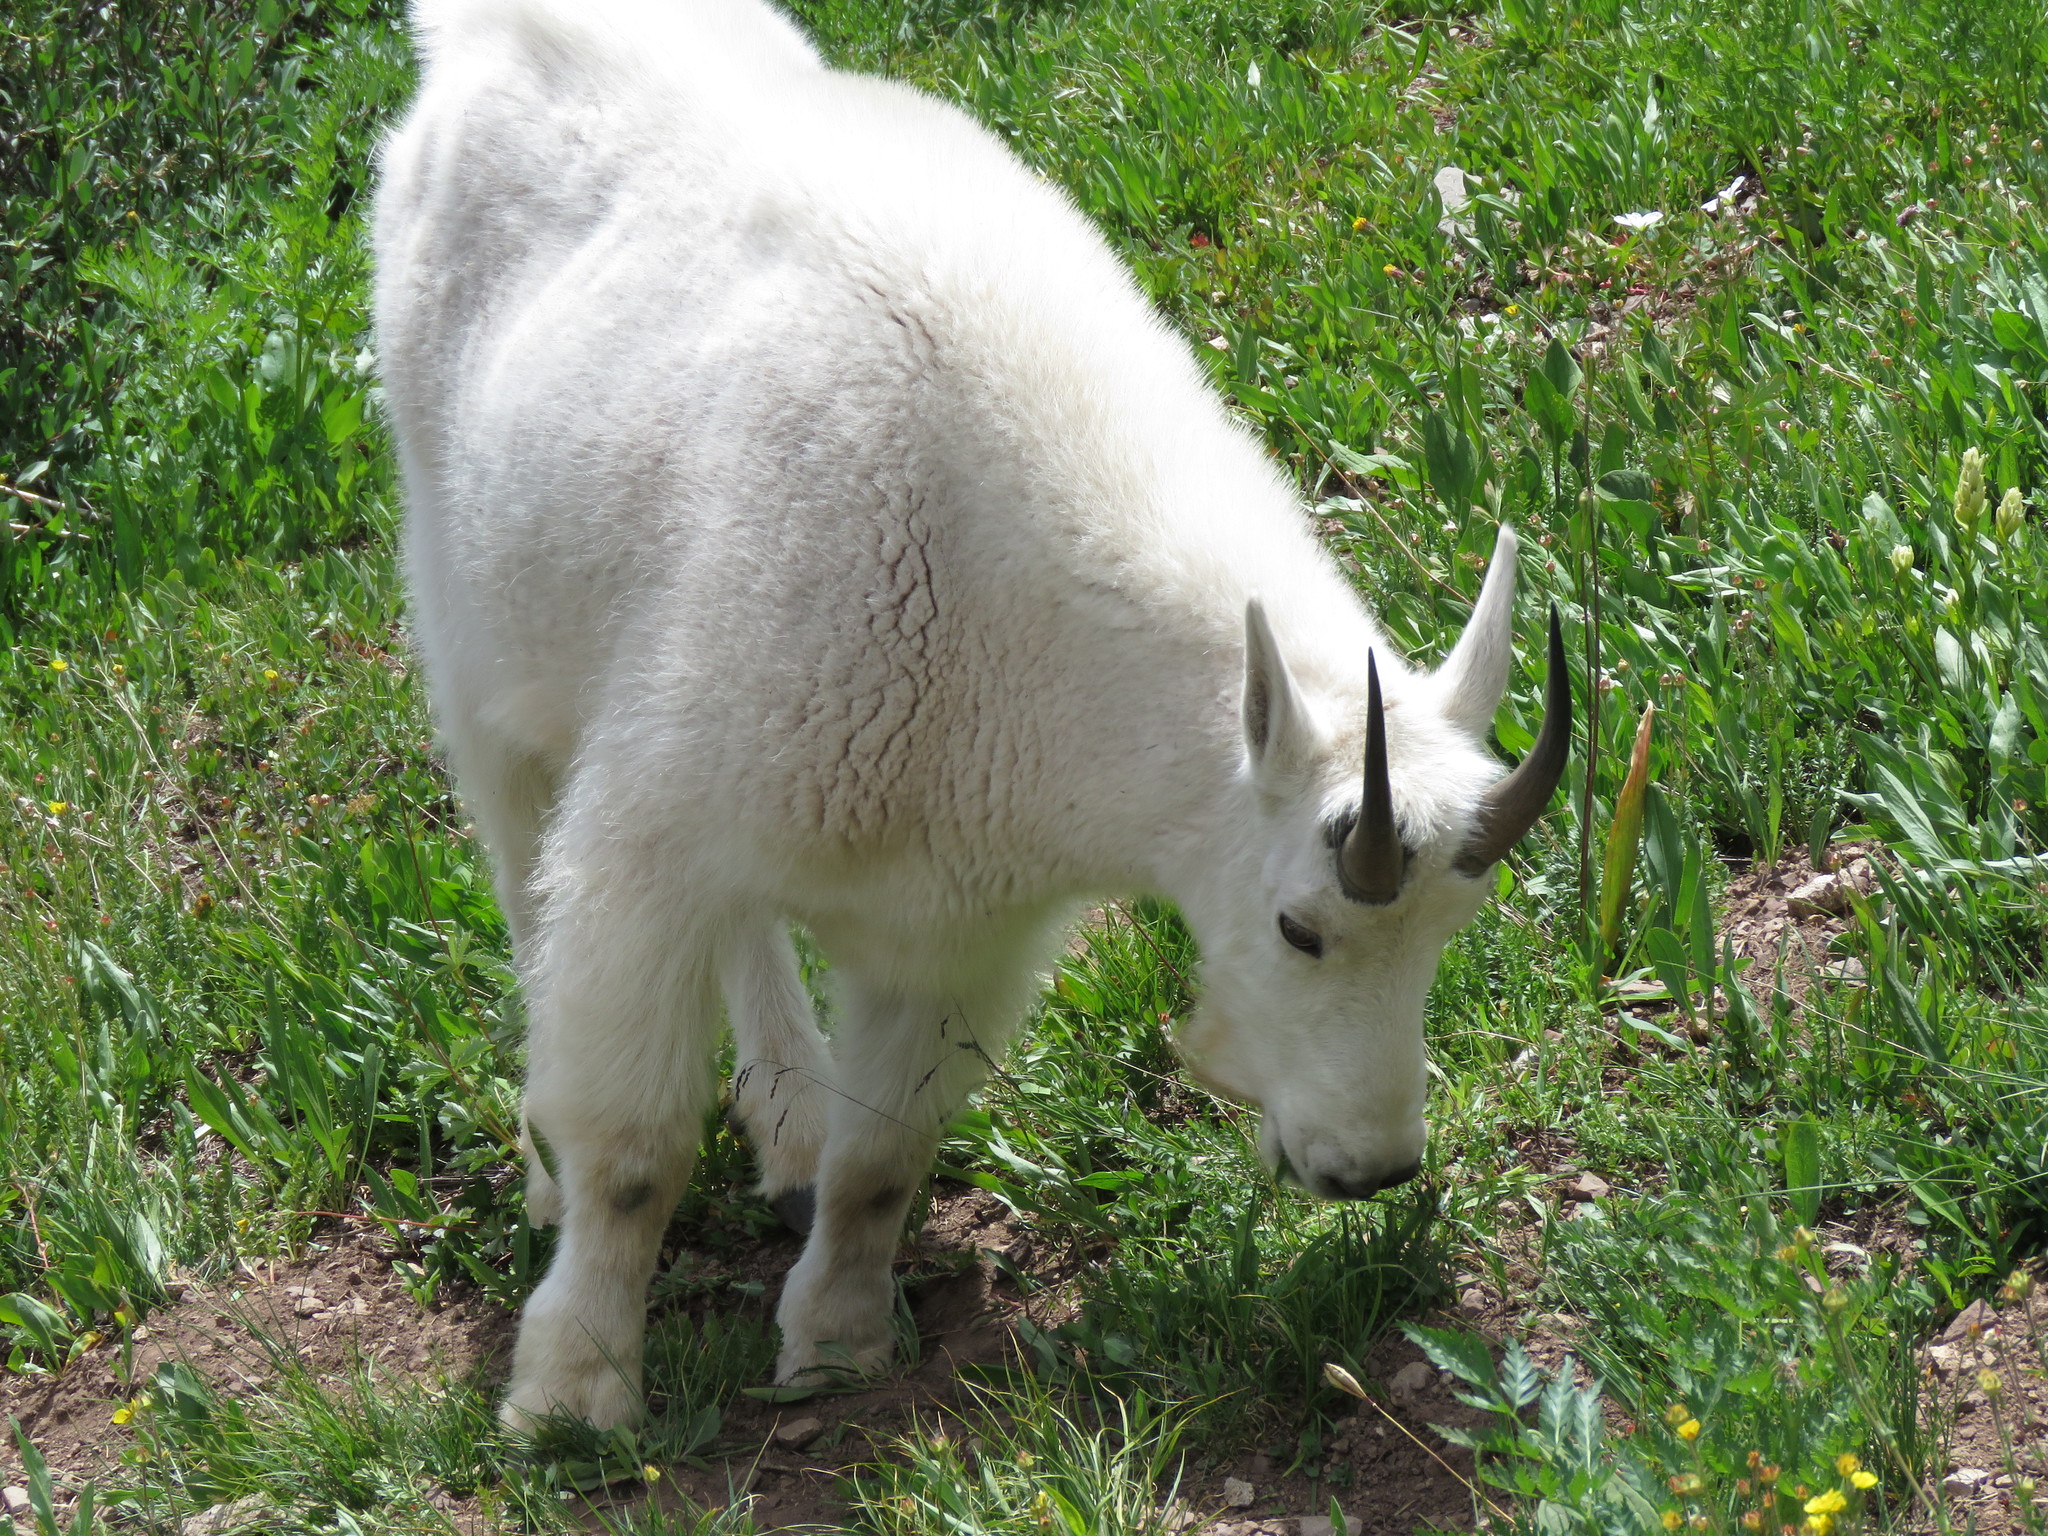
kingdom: Animalia
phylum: Chordata
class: Mammalia
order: Artiodactyla
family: Bovidae
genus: Oreamnos
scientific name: Oreamnos americanus
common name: Mountain goat
